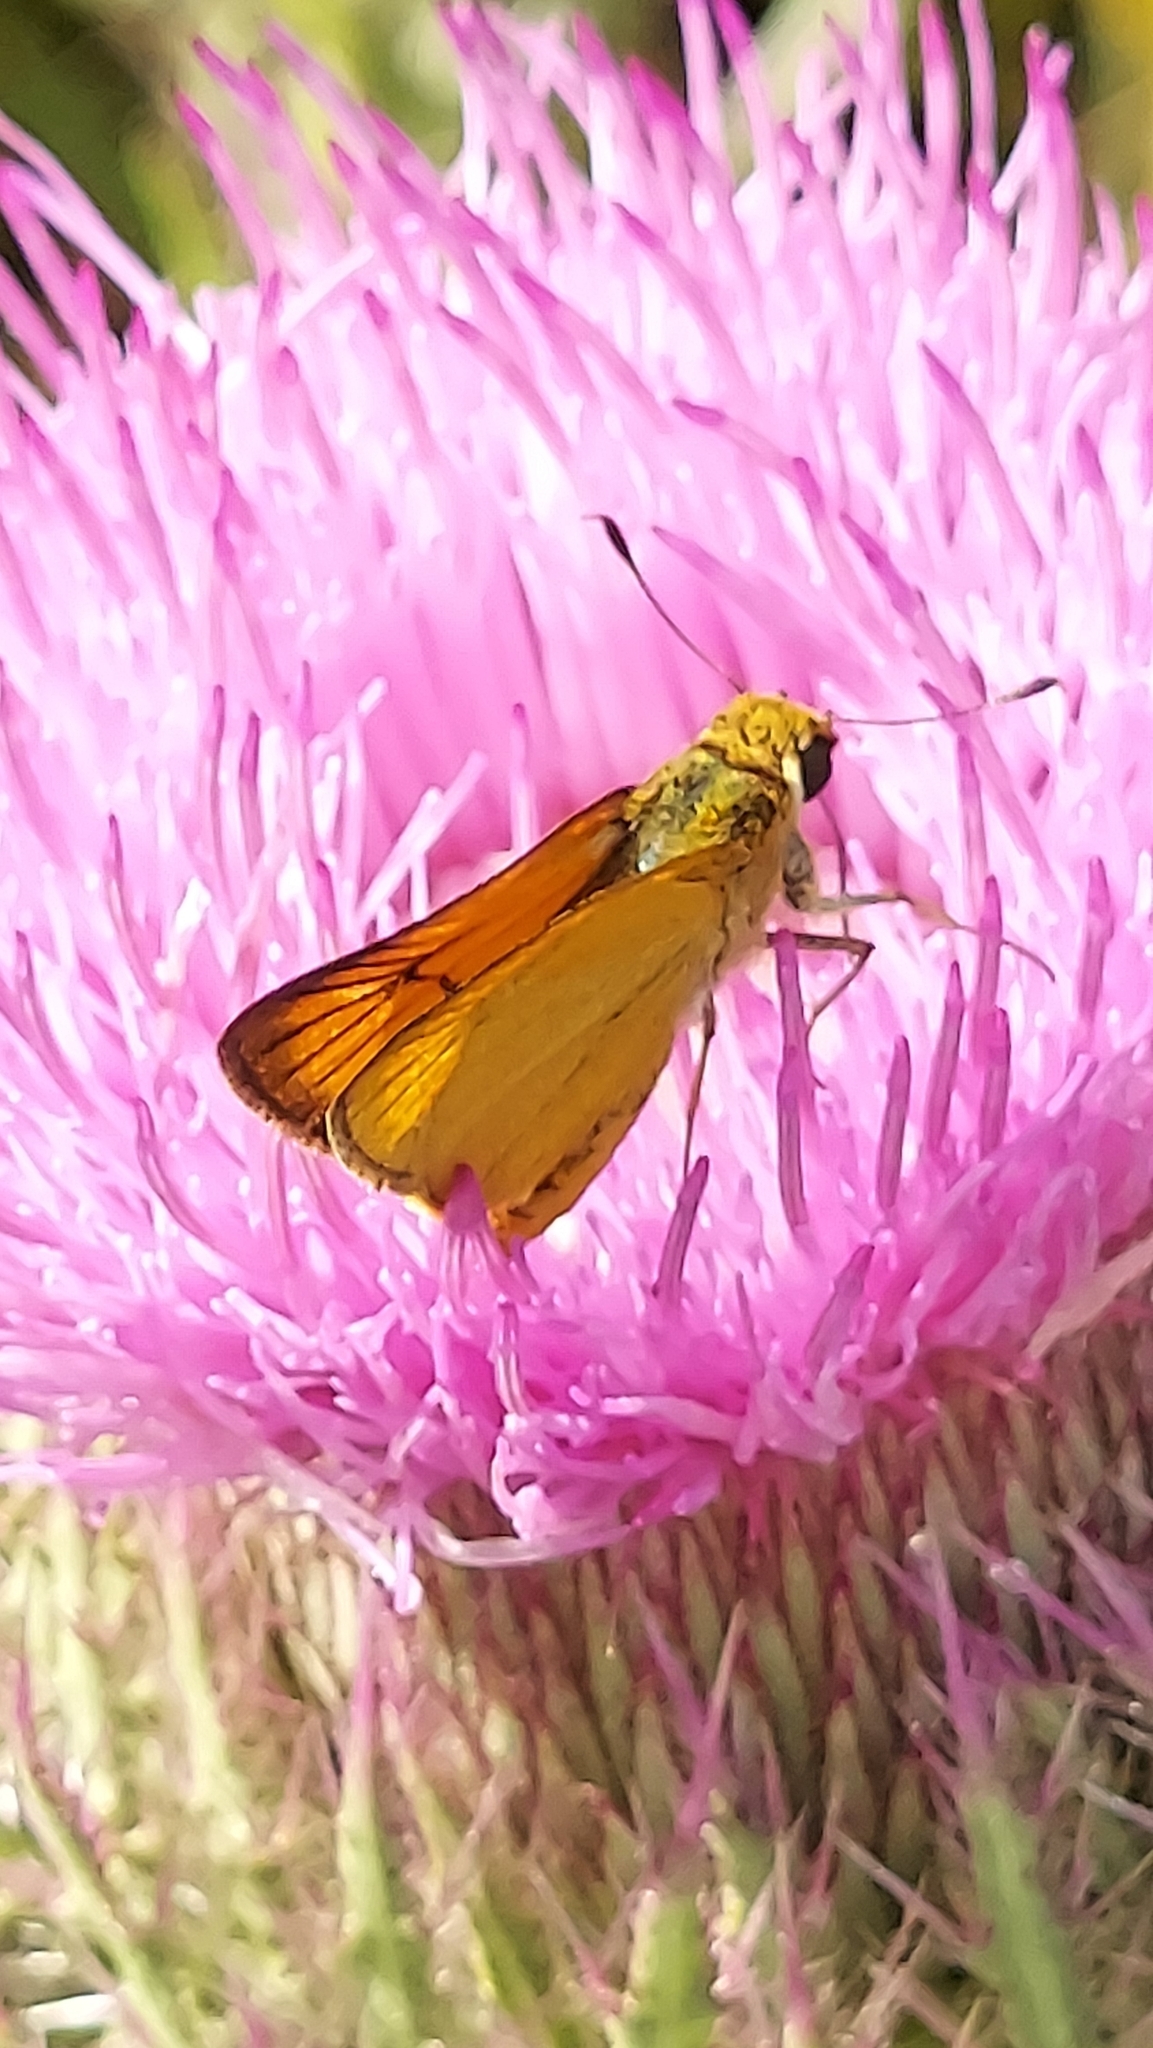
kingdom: Animalia
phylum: Arthropoda
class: Insecta
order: Lepidoptera
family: Hesperiidae
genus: Atrytone
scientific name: Atrytone delaware
